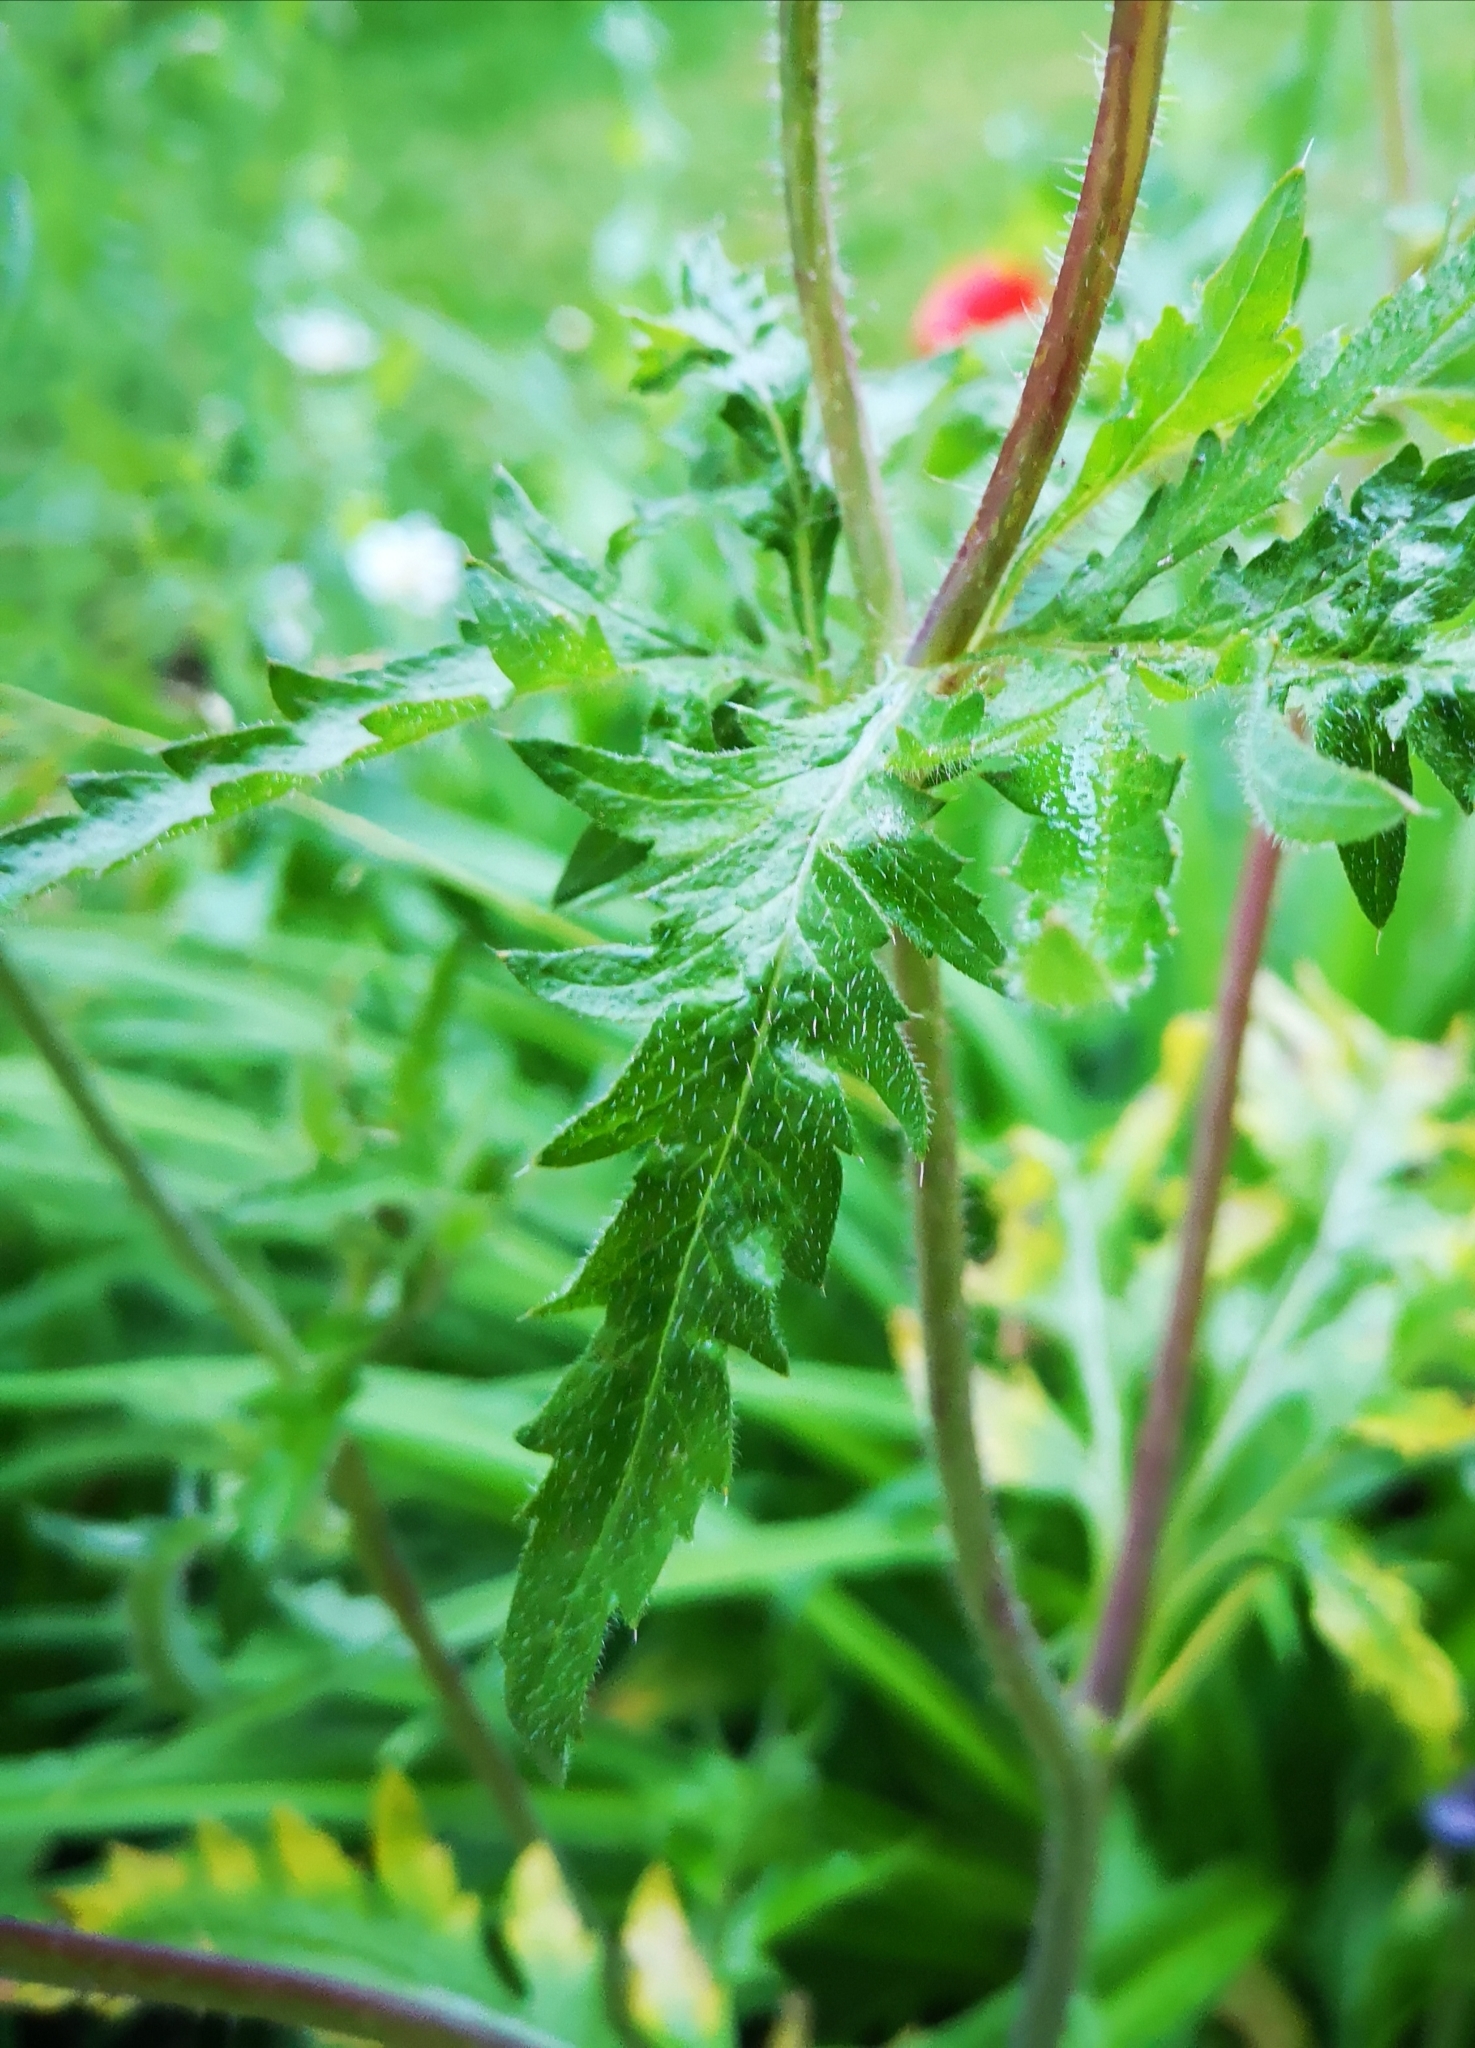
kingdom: Plantae
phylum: Tracheophyta
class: Magnoliopsida
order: Ranunculales
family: Papaveraceae
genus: Papaver
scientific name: Papaver rhoeas
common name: Corn poppy
